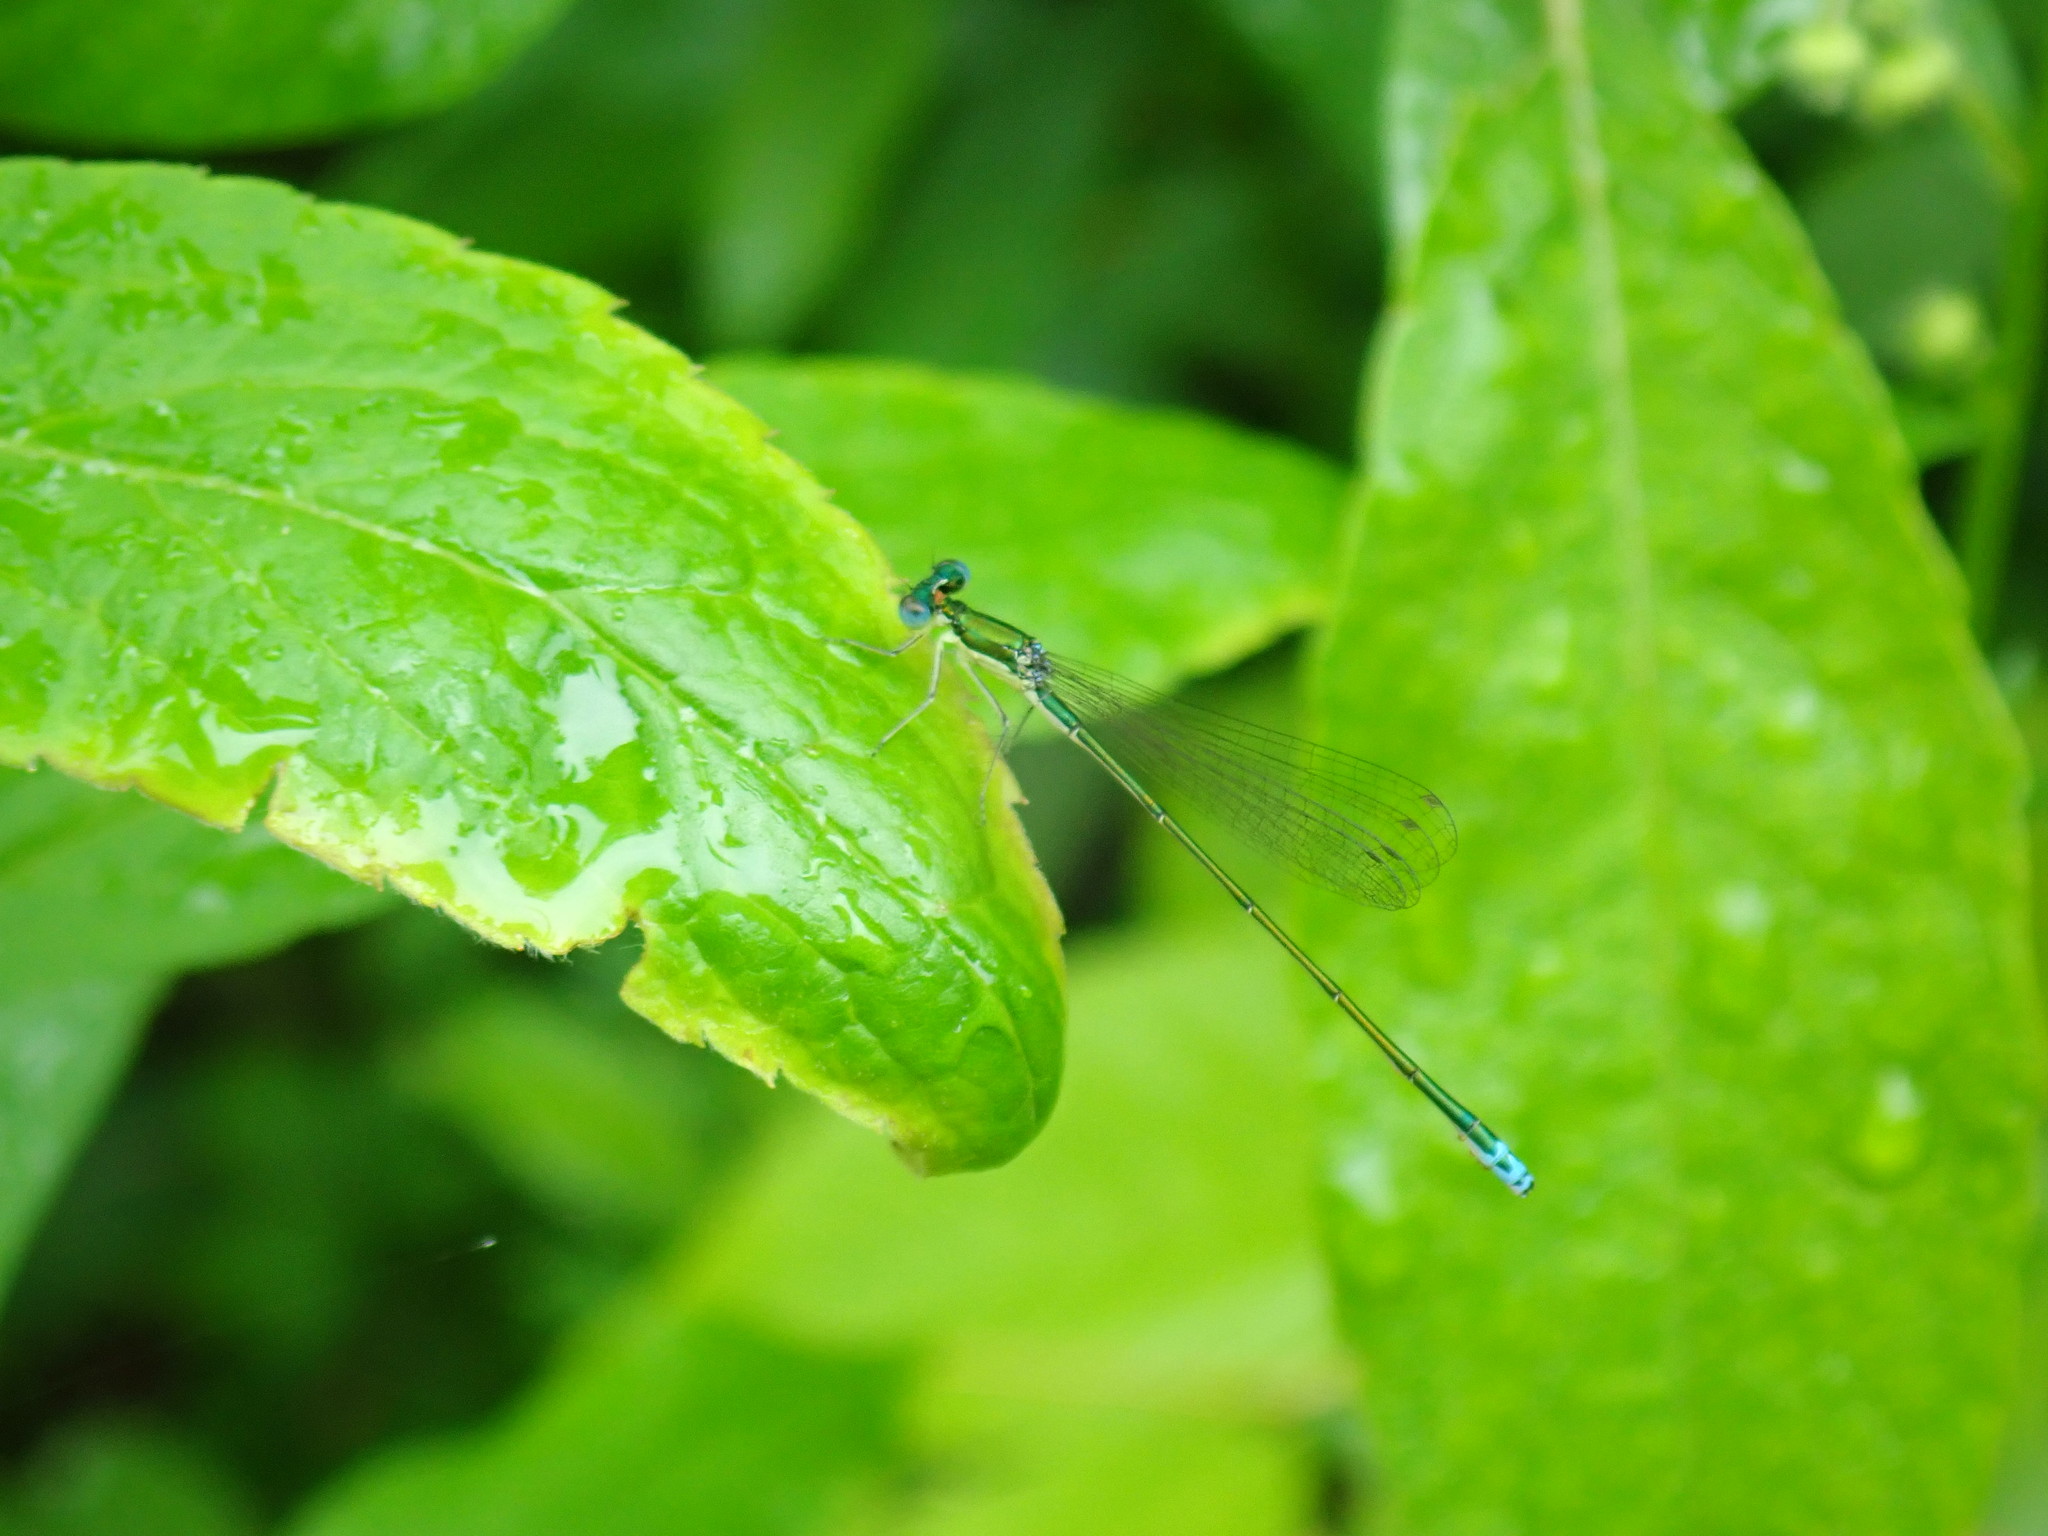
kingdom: Animalia
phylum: Arthropoda
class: Insecta
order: Odonata
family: Coenagrionidae
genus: Nehalennia
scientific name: Nehalennia irene
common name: Sedge sprite
